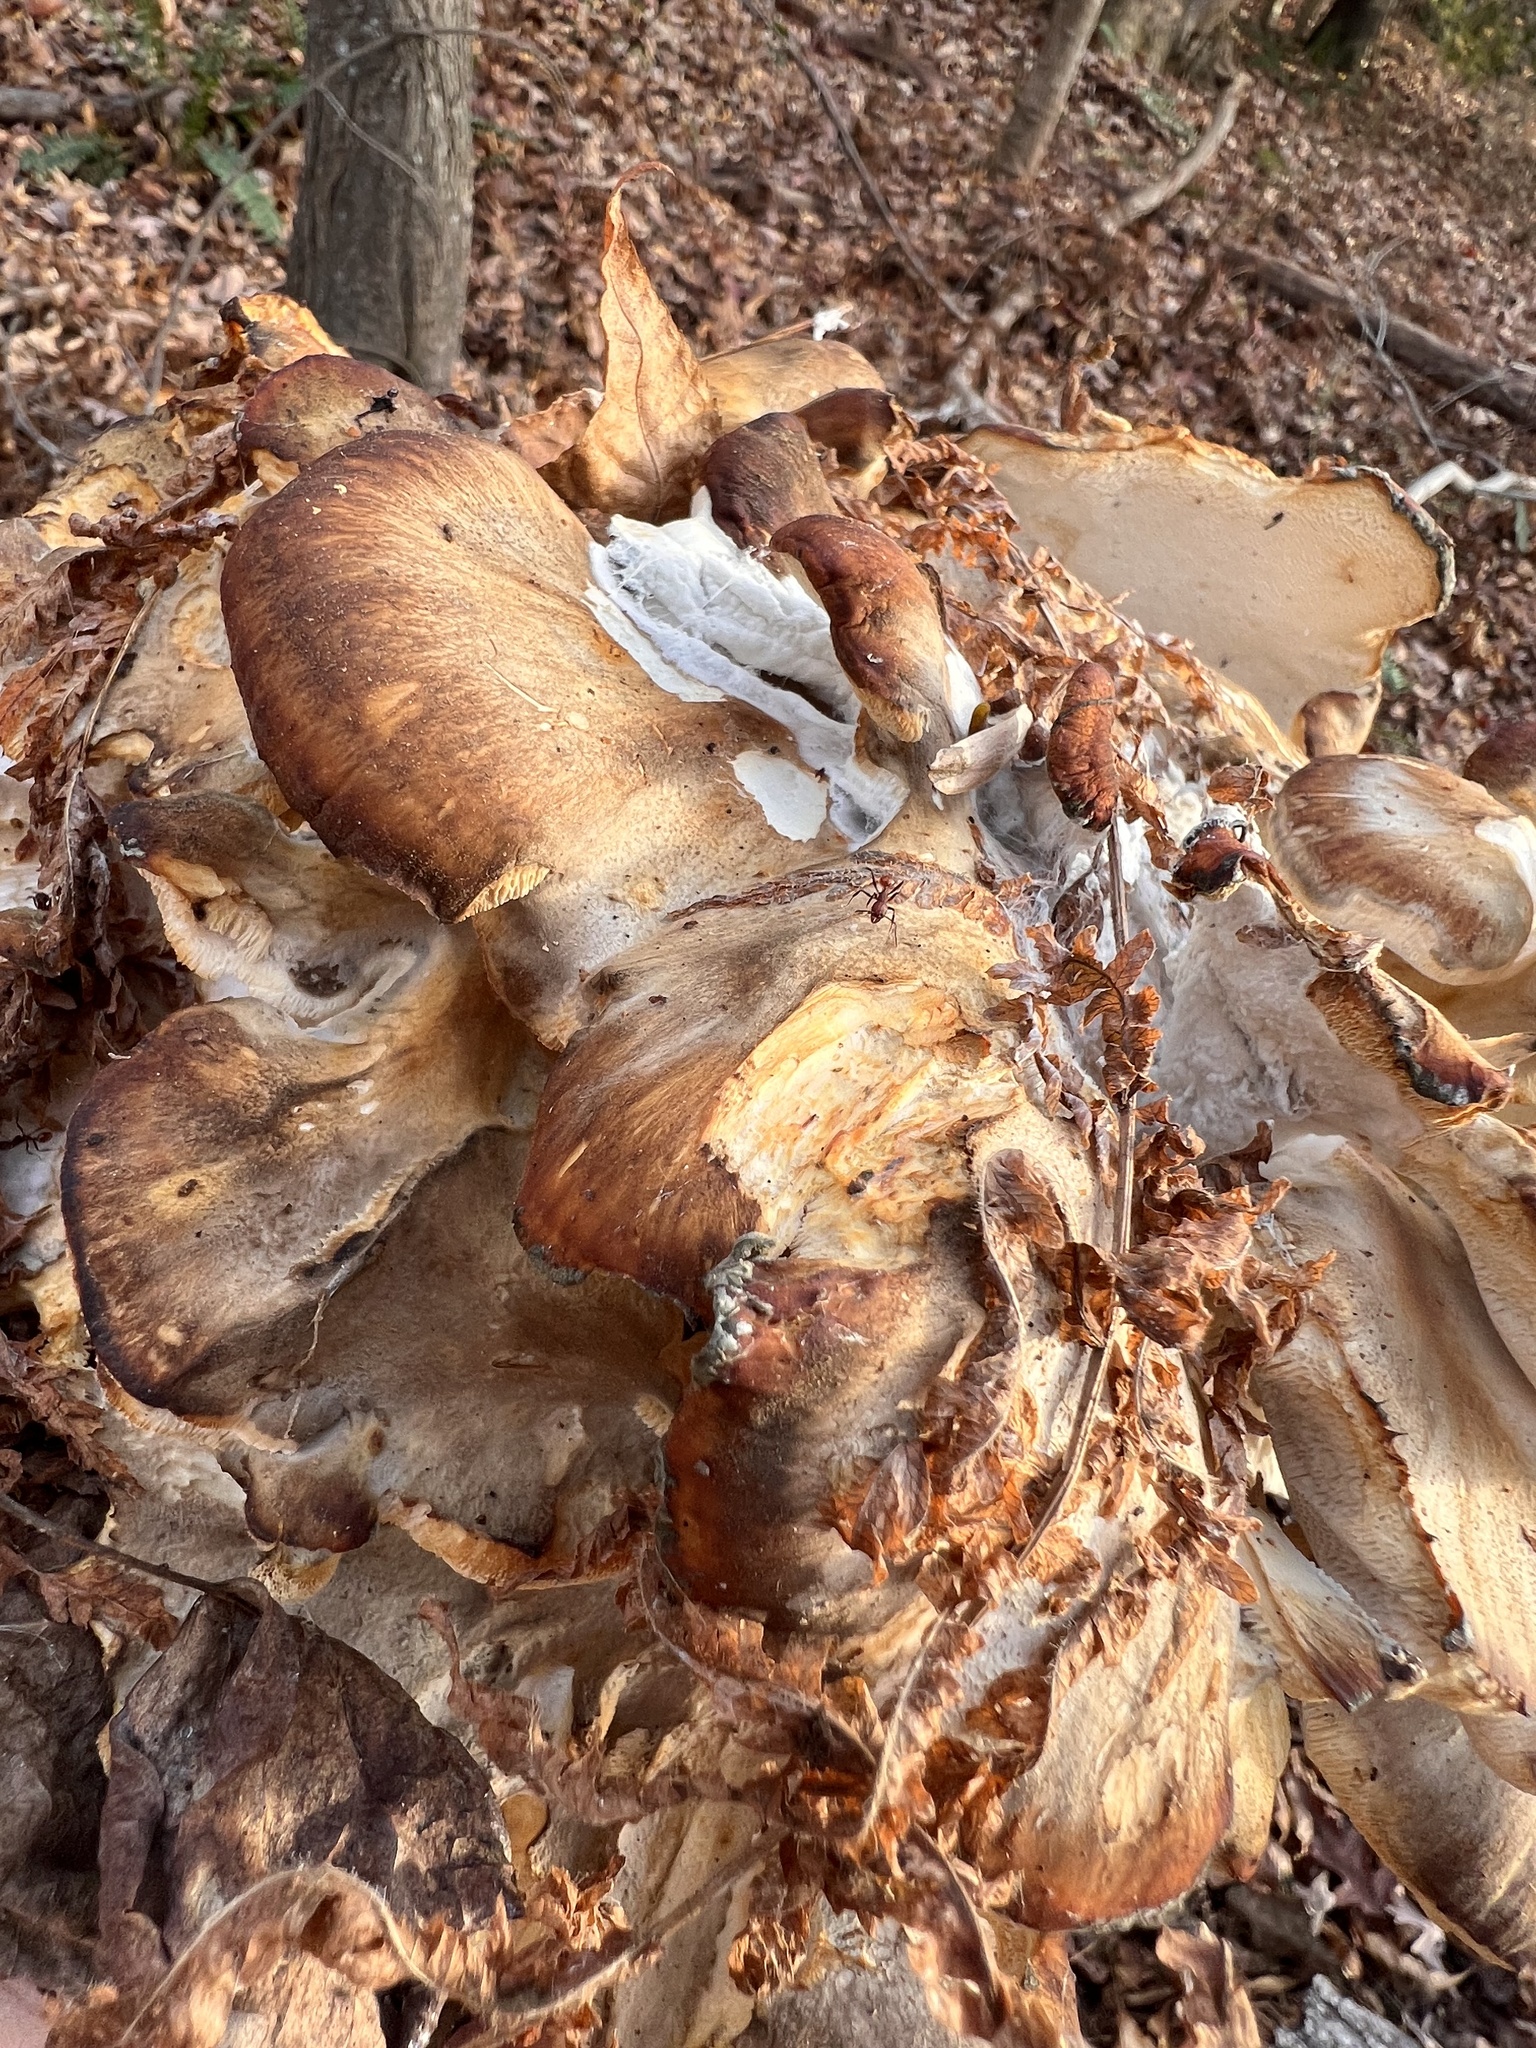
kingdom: Fungi
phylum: Basidiomycota
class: Agaricomycetes
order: Polyporales
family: Grifolaceae
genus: Grifola
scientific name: Grifola frondosa
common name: Hen of the woods
